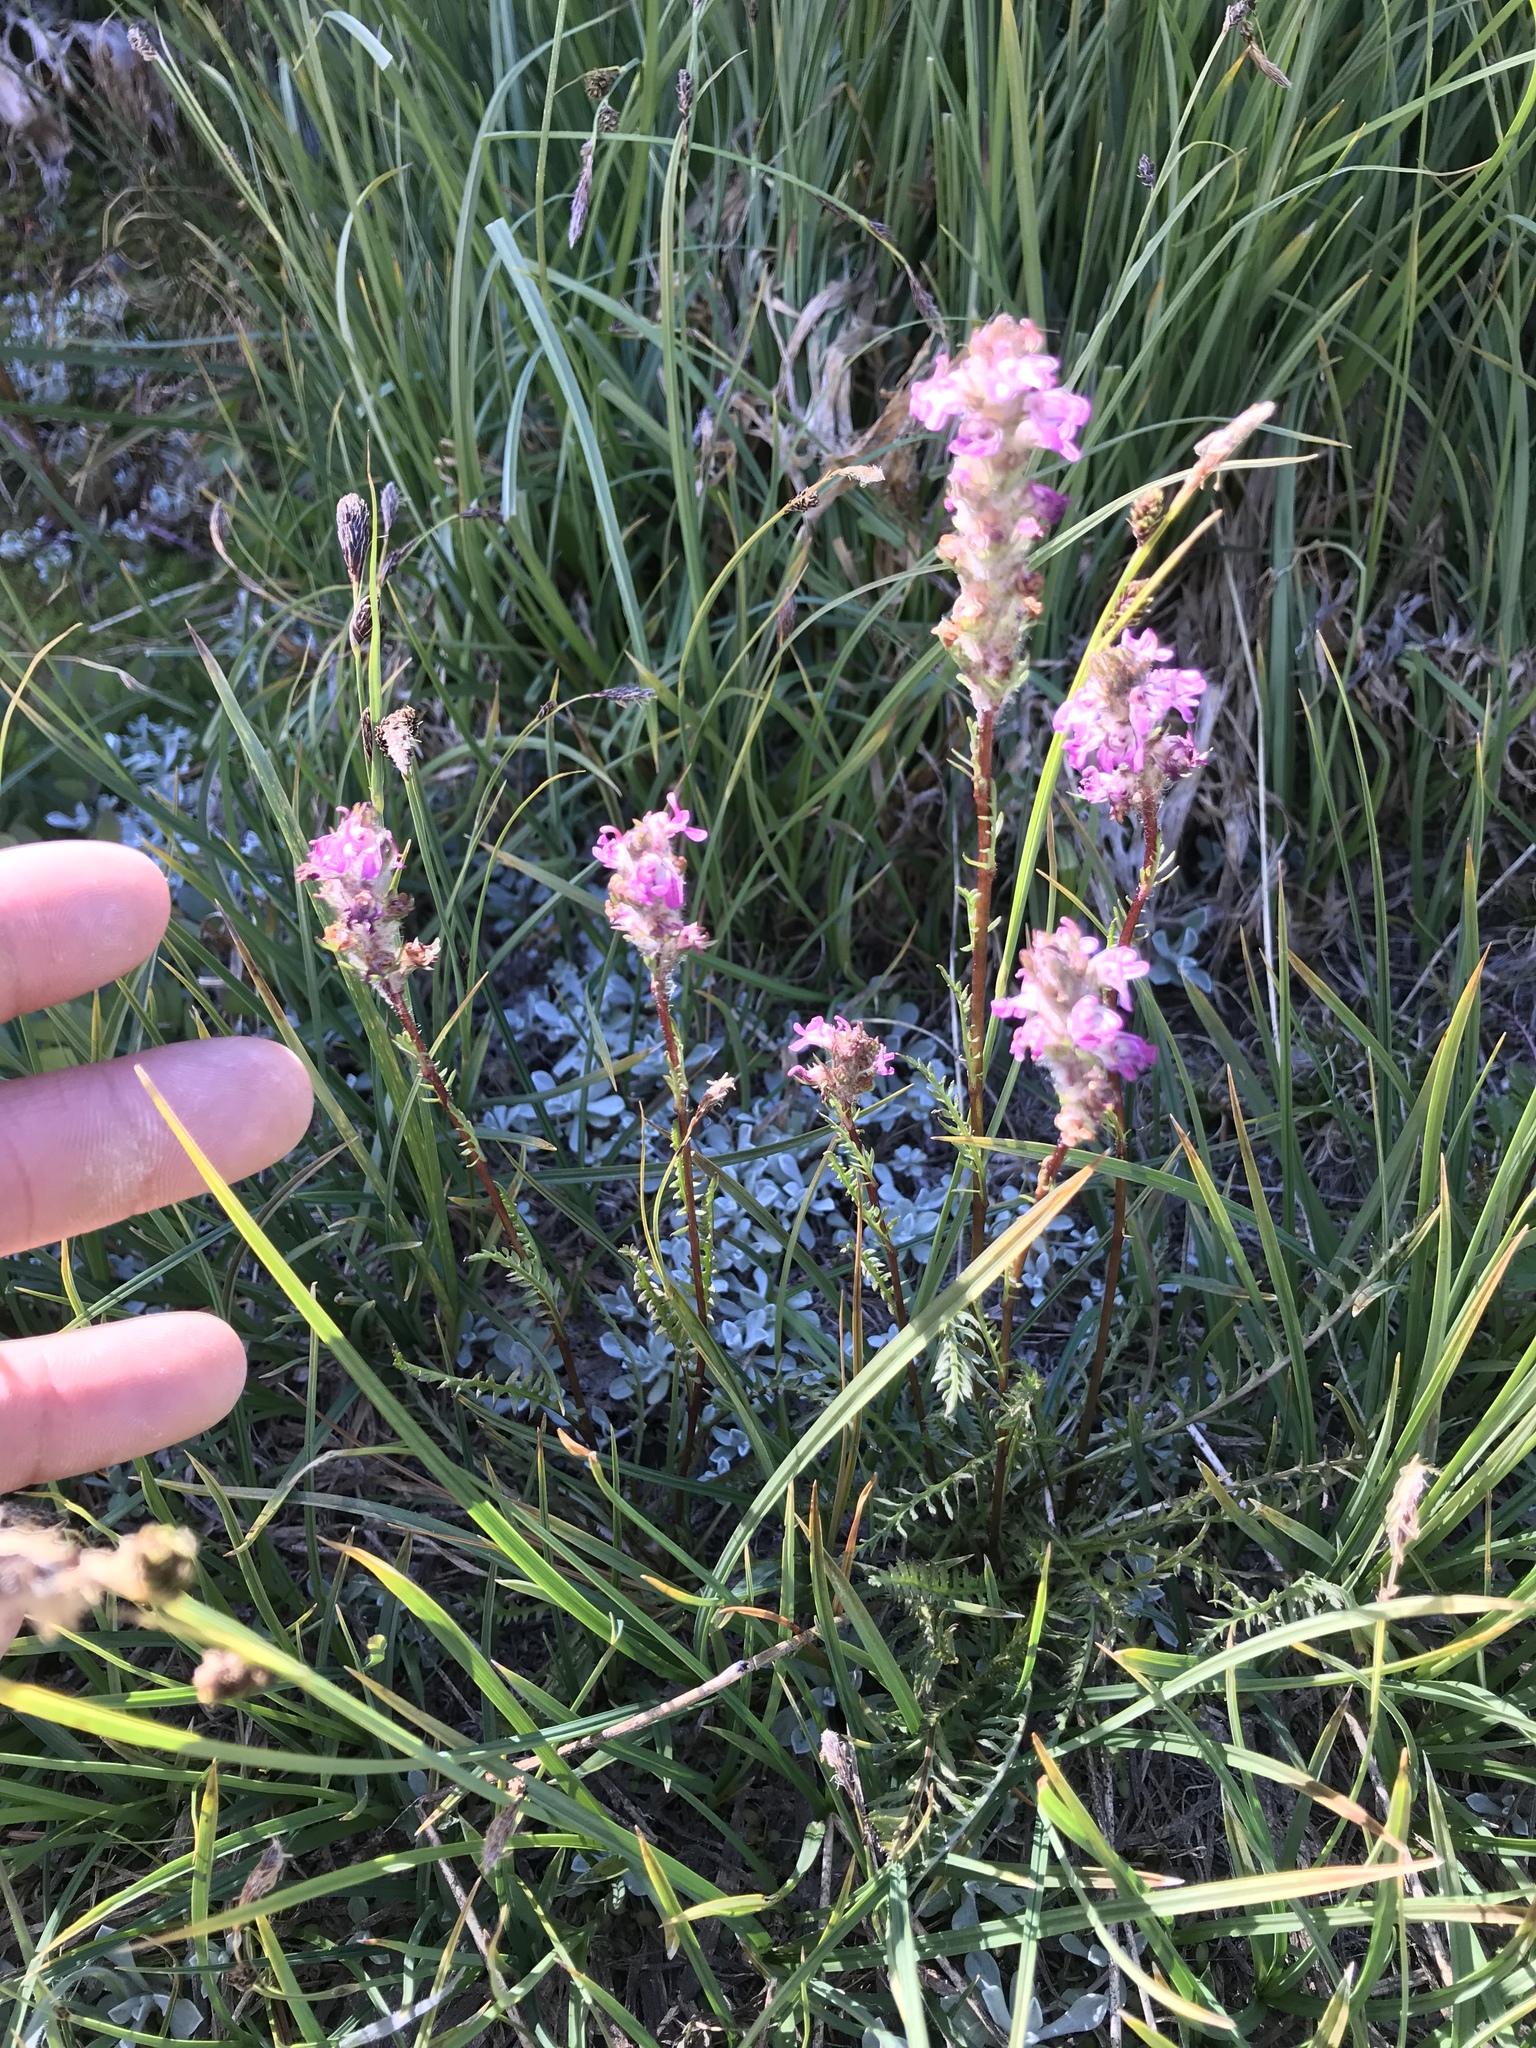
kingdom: Plantae
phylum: Tracheophyta
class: Magnoliopsida
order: Lamiales
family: Orobanchaceae
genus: Pedicularis
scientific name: Pedicularis attollens
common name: Slender pedicularis
